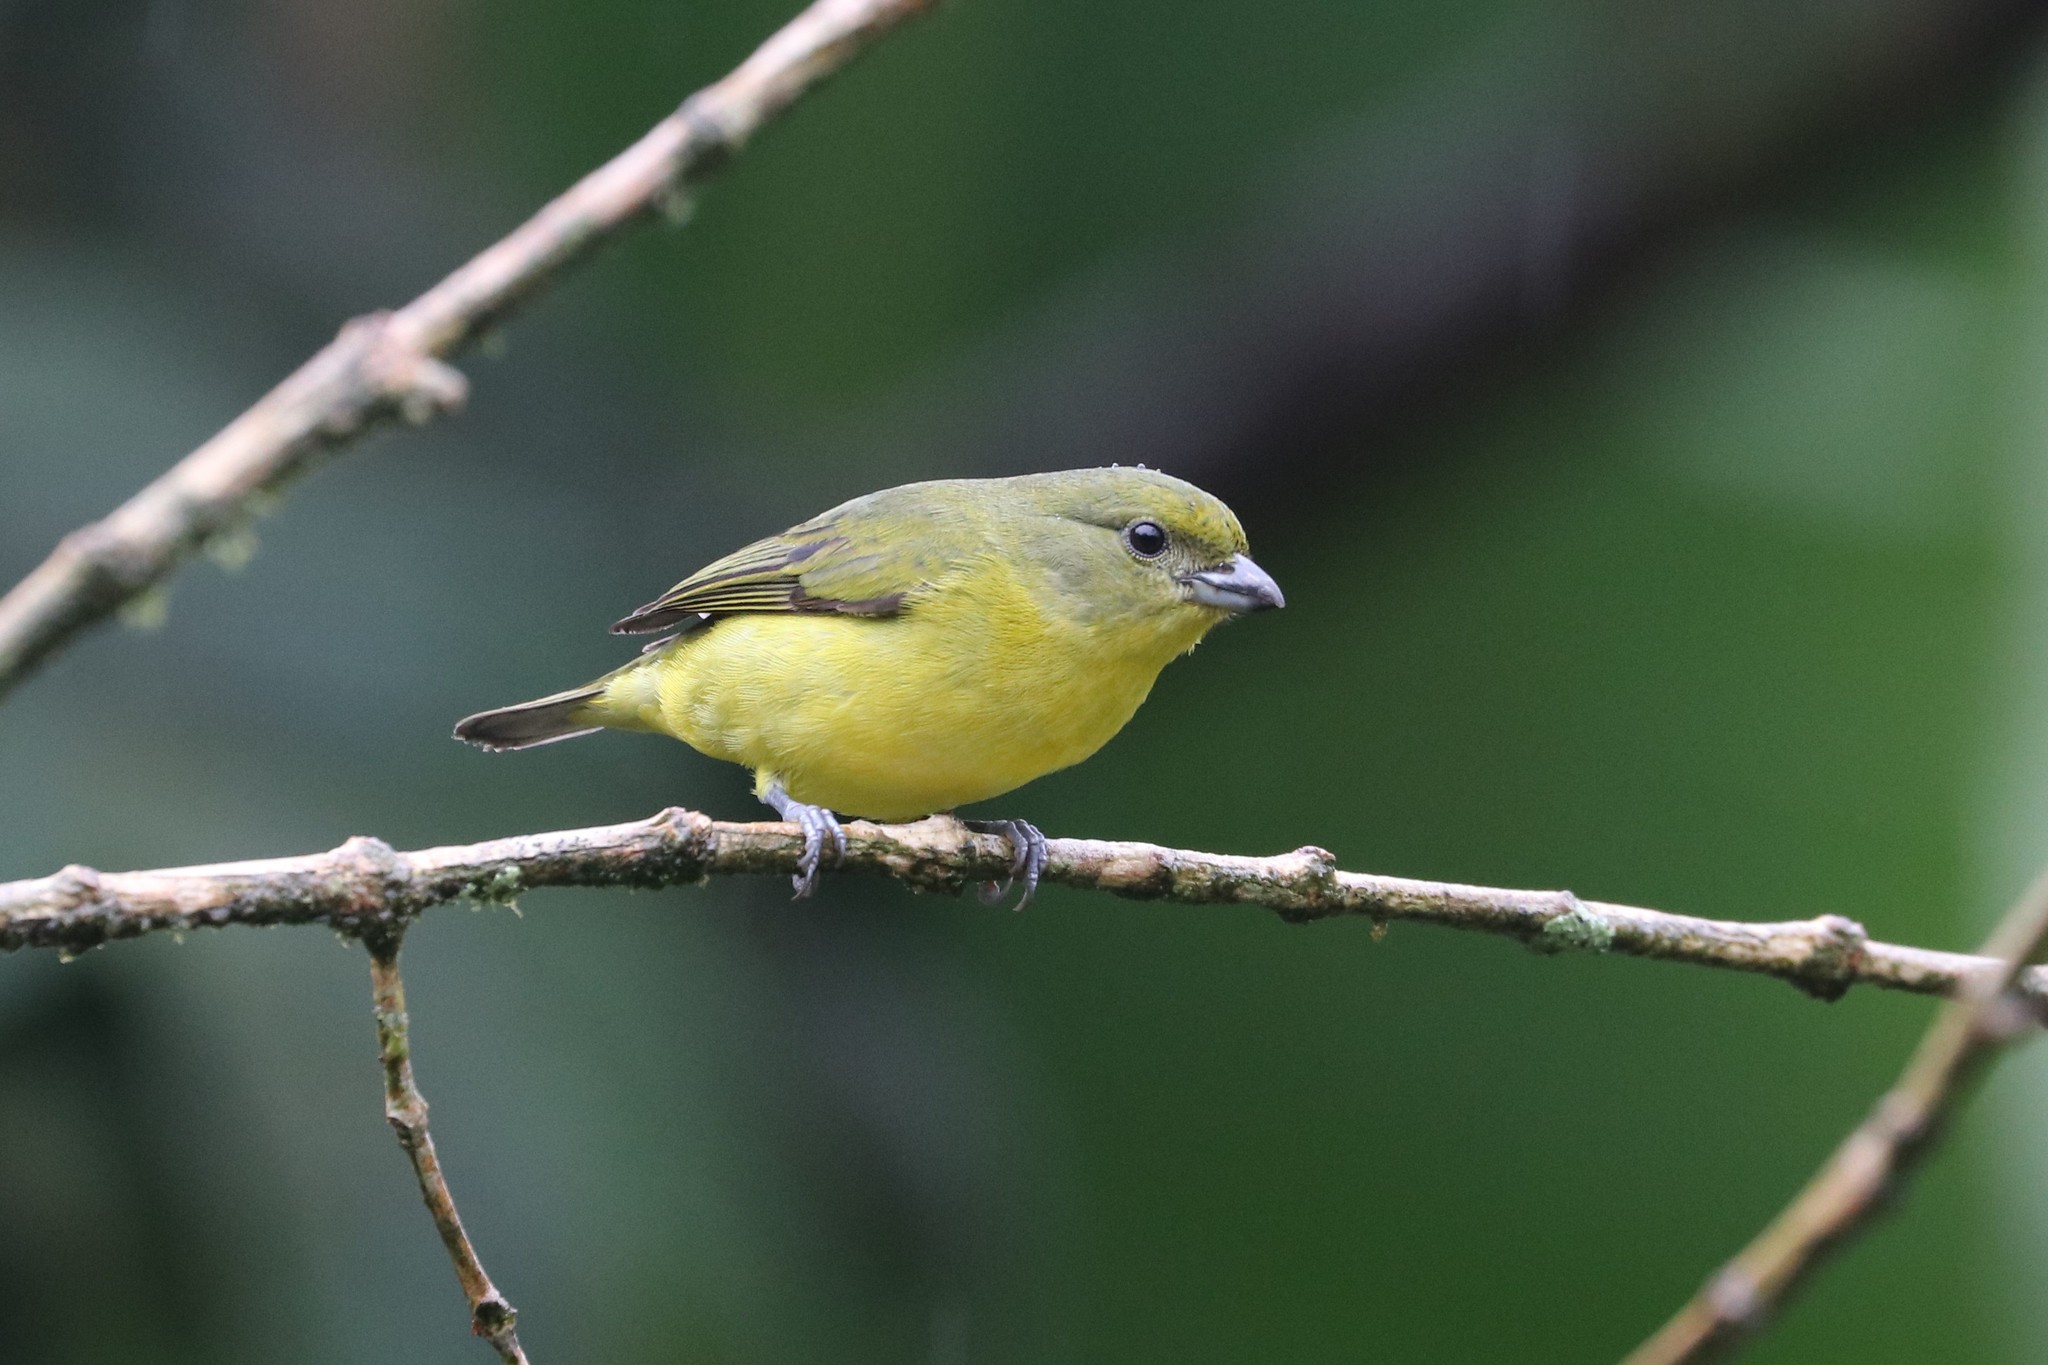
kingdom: Animalia
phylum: Chordata
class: Aves
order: Passeriformes
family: Fringillidae
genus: Euphonia
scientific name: Euphonia laniirostris
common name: Thick-billed euphonia
